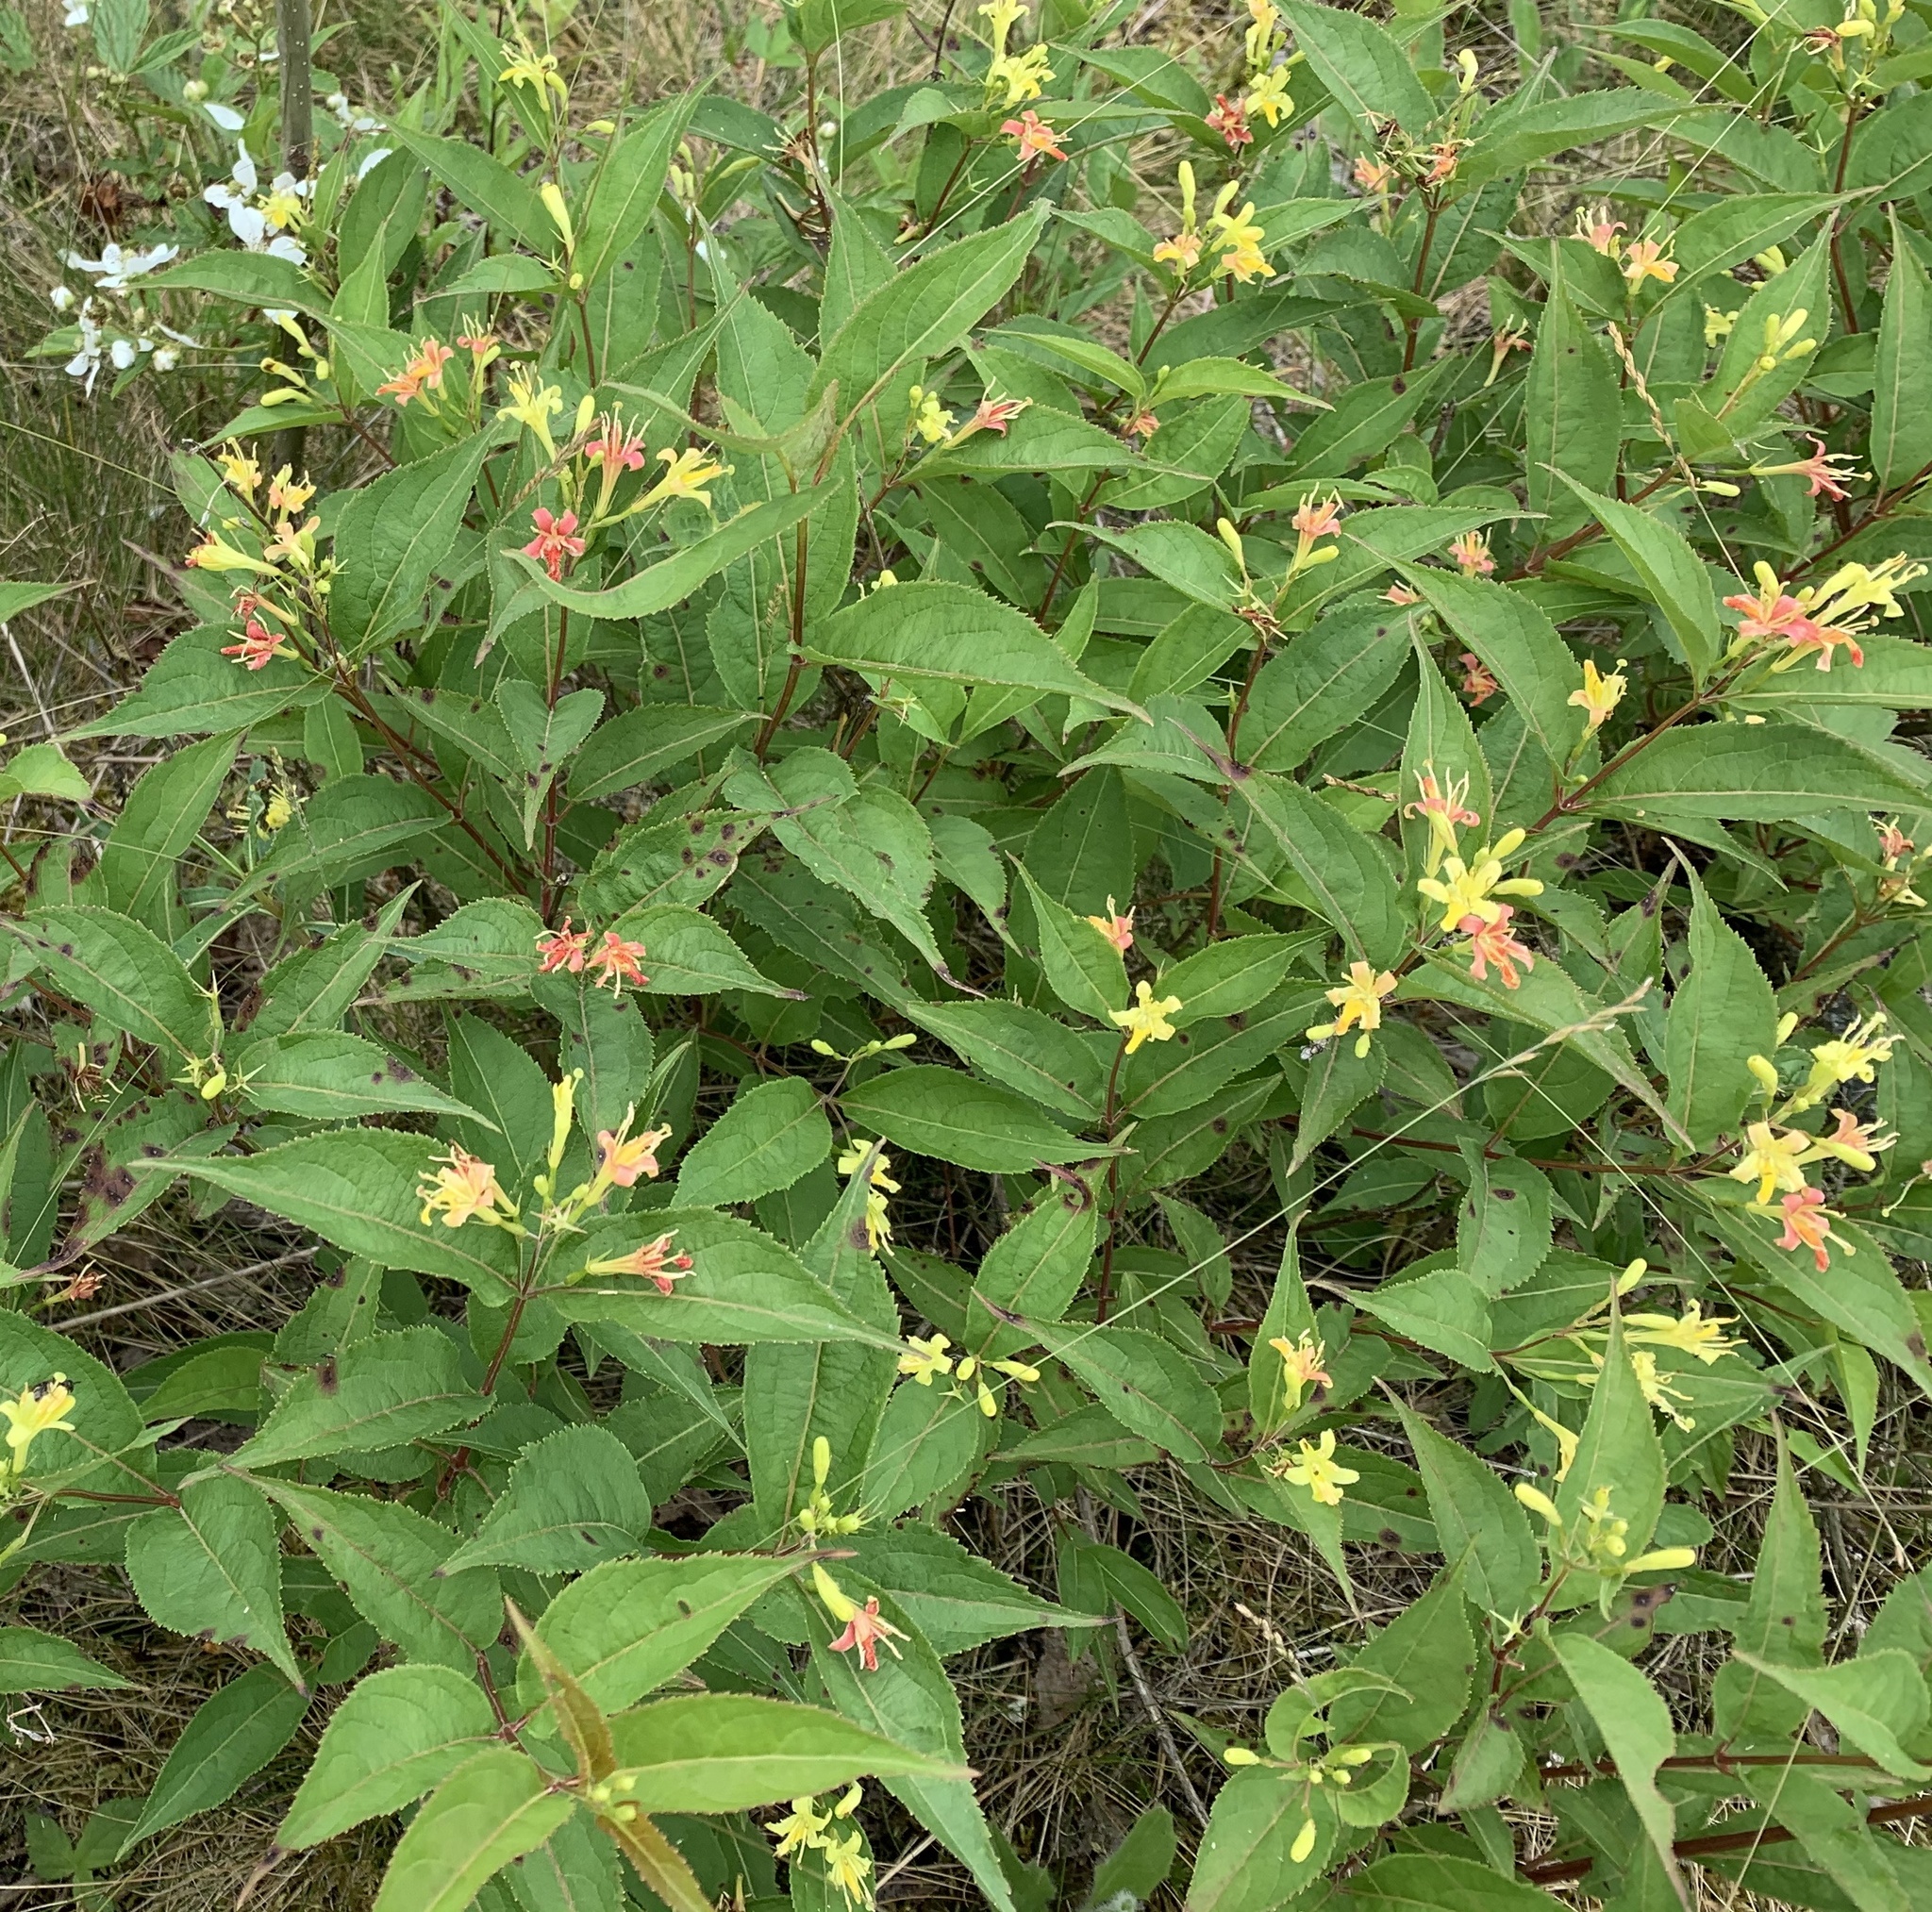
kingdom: Plantae
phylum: Tracheophyta
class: Magnoliopsida
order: Dipsacales
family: Caprifoliaceae
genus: Diervilla
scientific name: Diervilla lonicera
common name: Bush-honeysuckle
